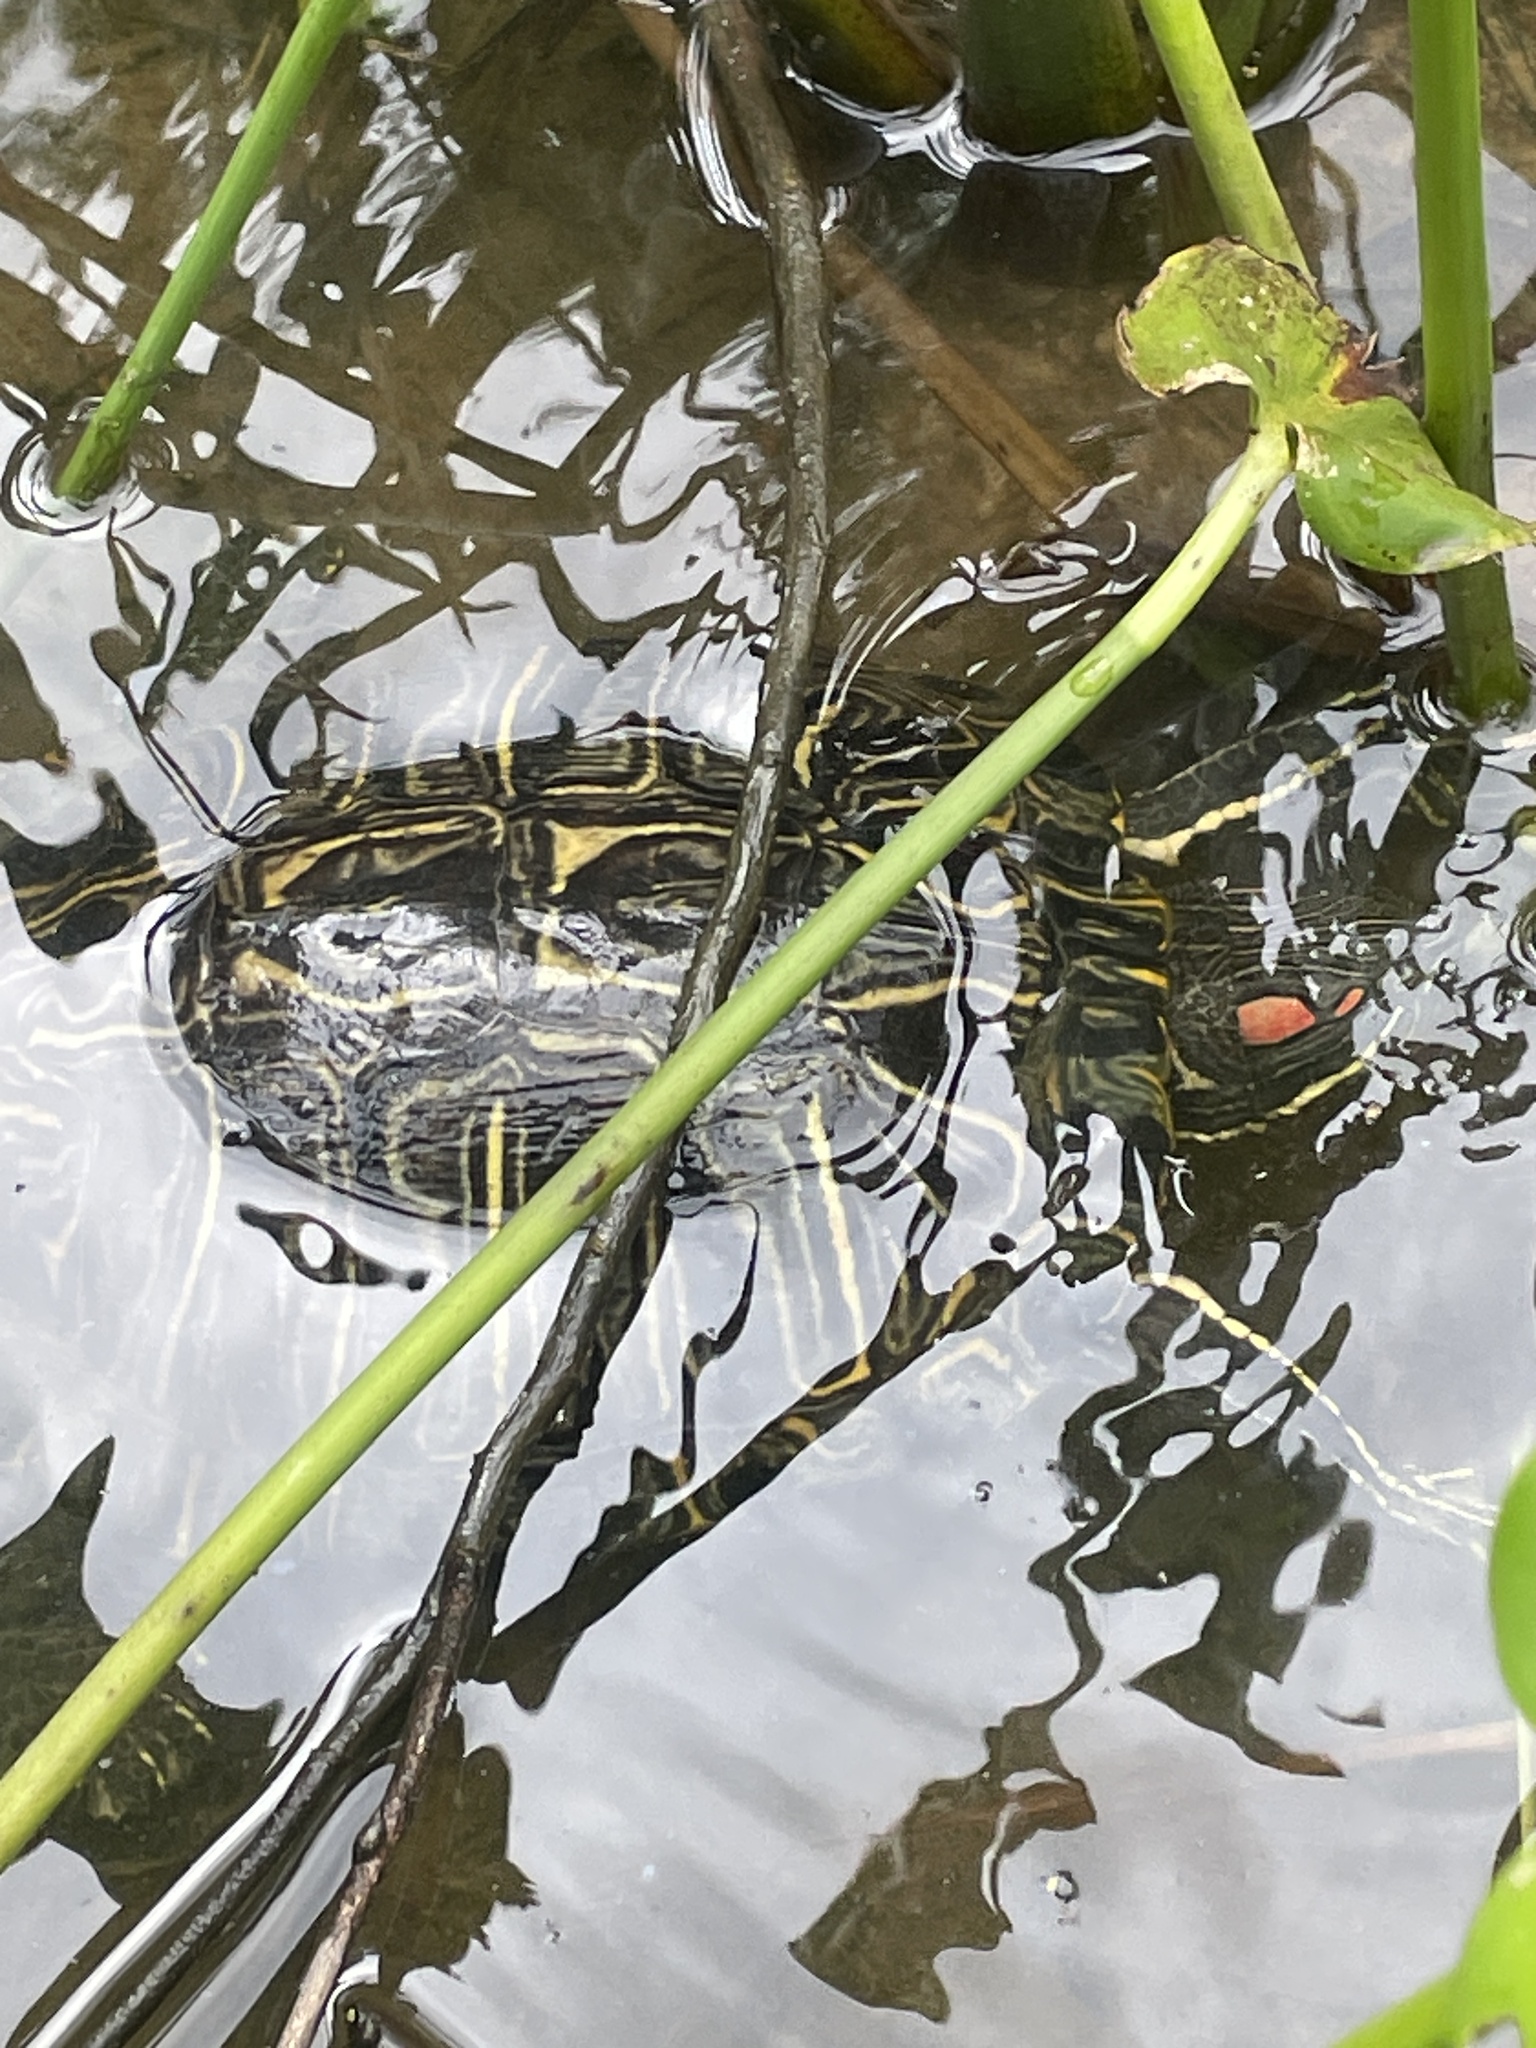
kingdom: Animalia
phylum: Chordata
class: Testudines
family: Emydidae
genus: Trachemys
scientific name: Trachemys scripta
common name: Slider
